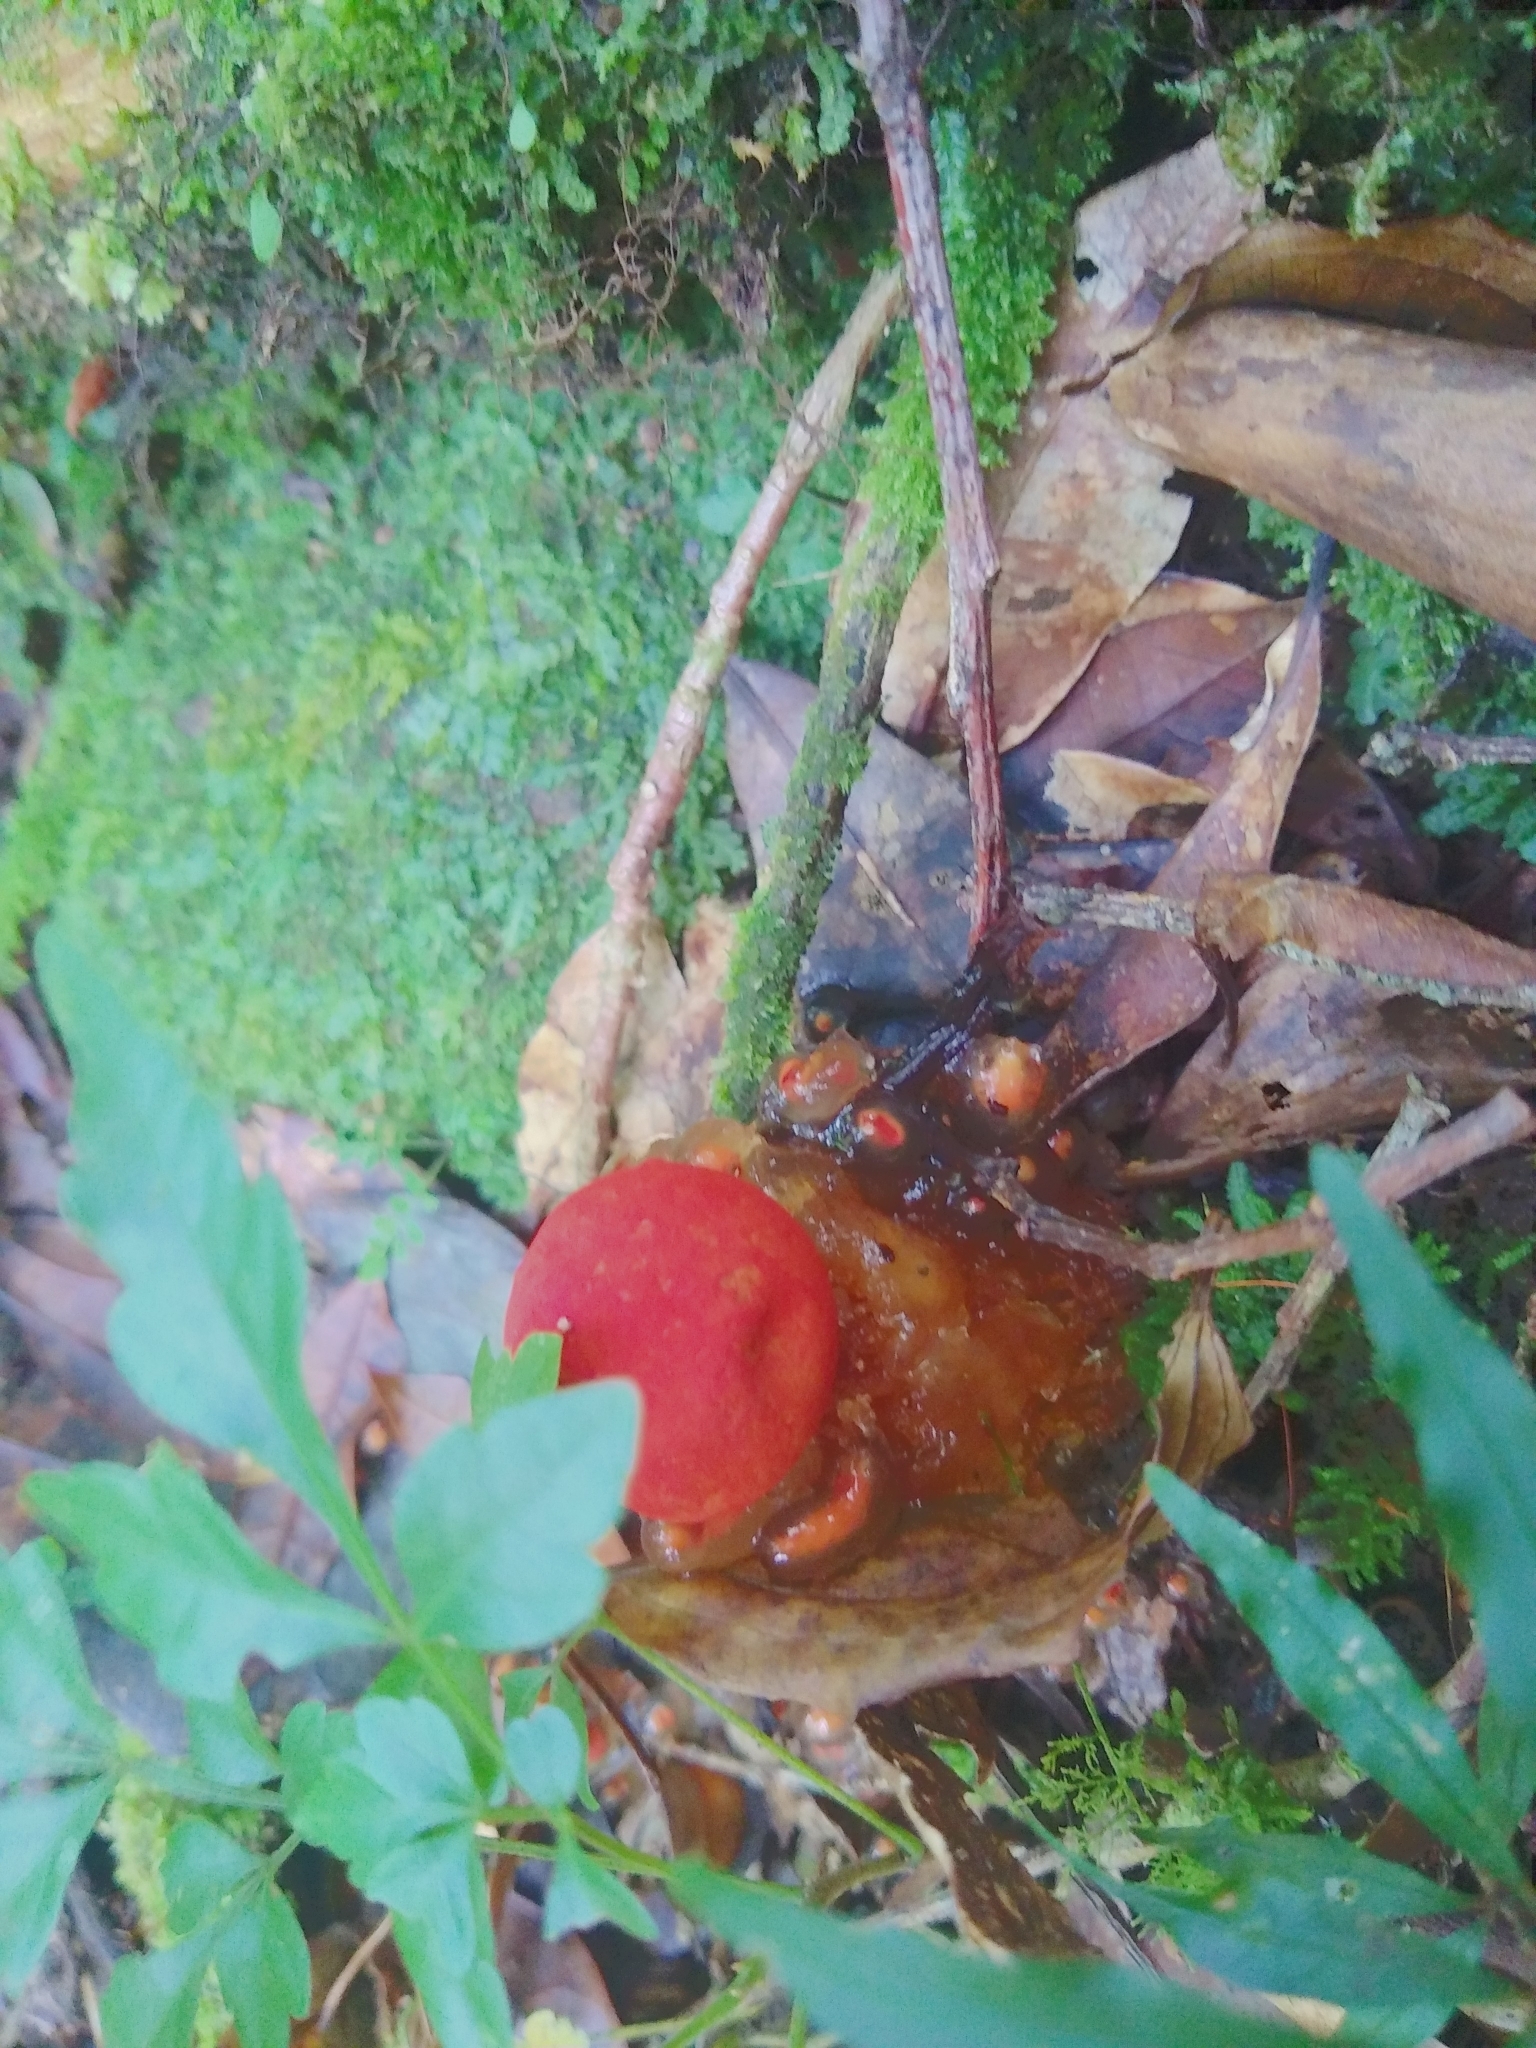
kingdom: Fungi
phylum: Basidiomycota
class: Agaricomycetes
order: Boletales
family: Calostomataceae
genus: Calostoma
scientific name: Calostoma cinnabarinum
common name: Stalked puffball-in-aspic
